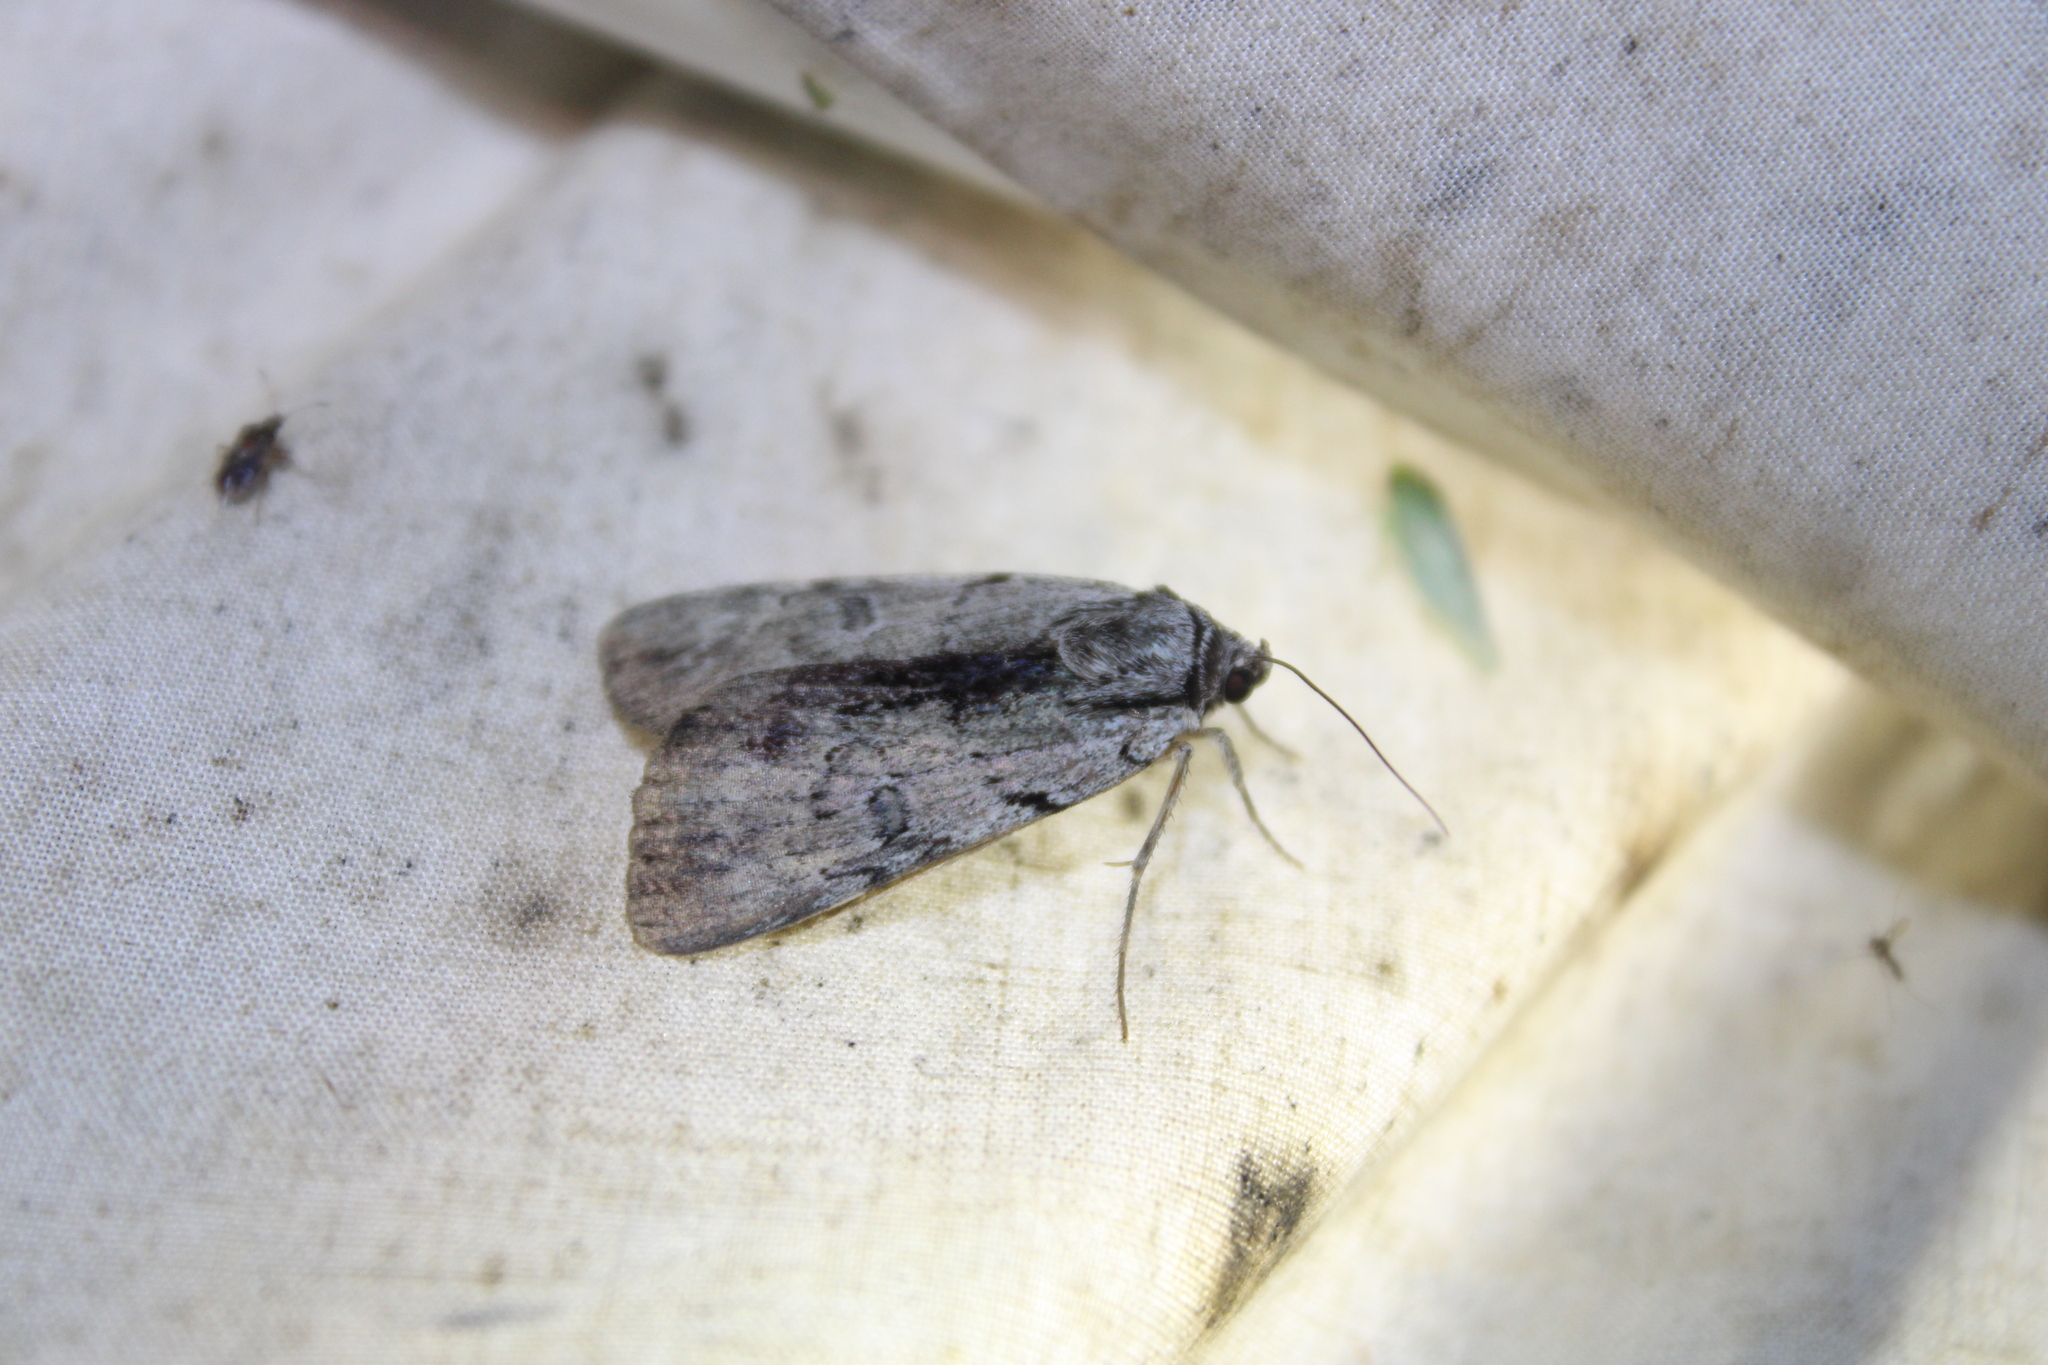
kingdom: Animalia
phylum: Arthropoda
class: Insecta
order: Lepidoptera
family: Erebidae
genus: Catocala
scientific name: Catocala gracilis
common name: Graceful underwing
